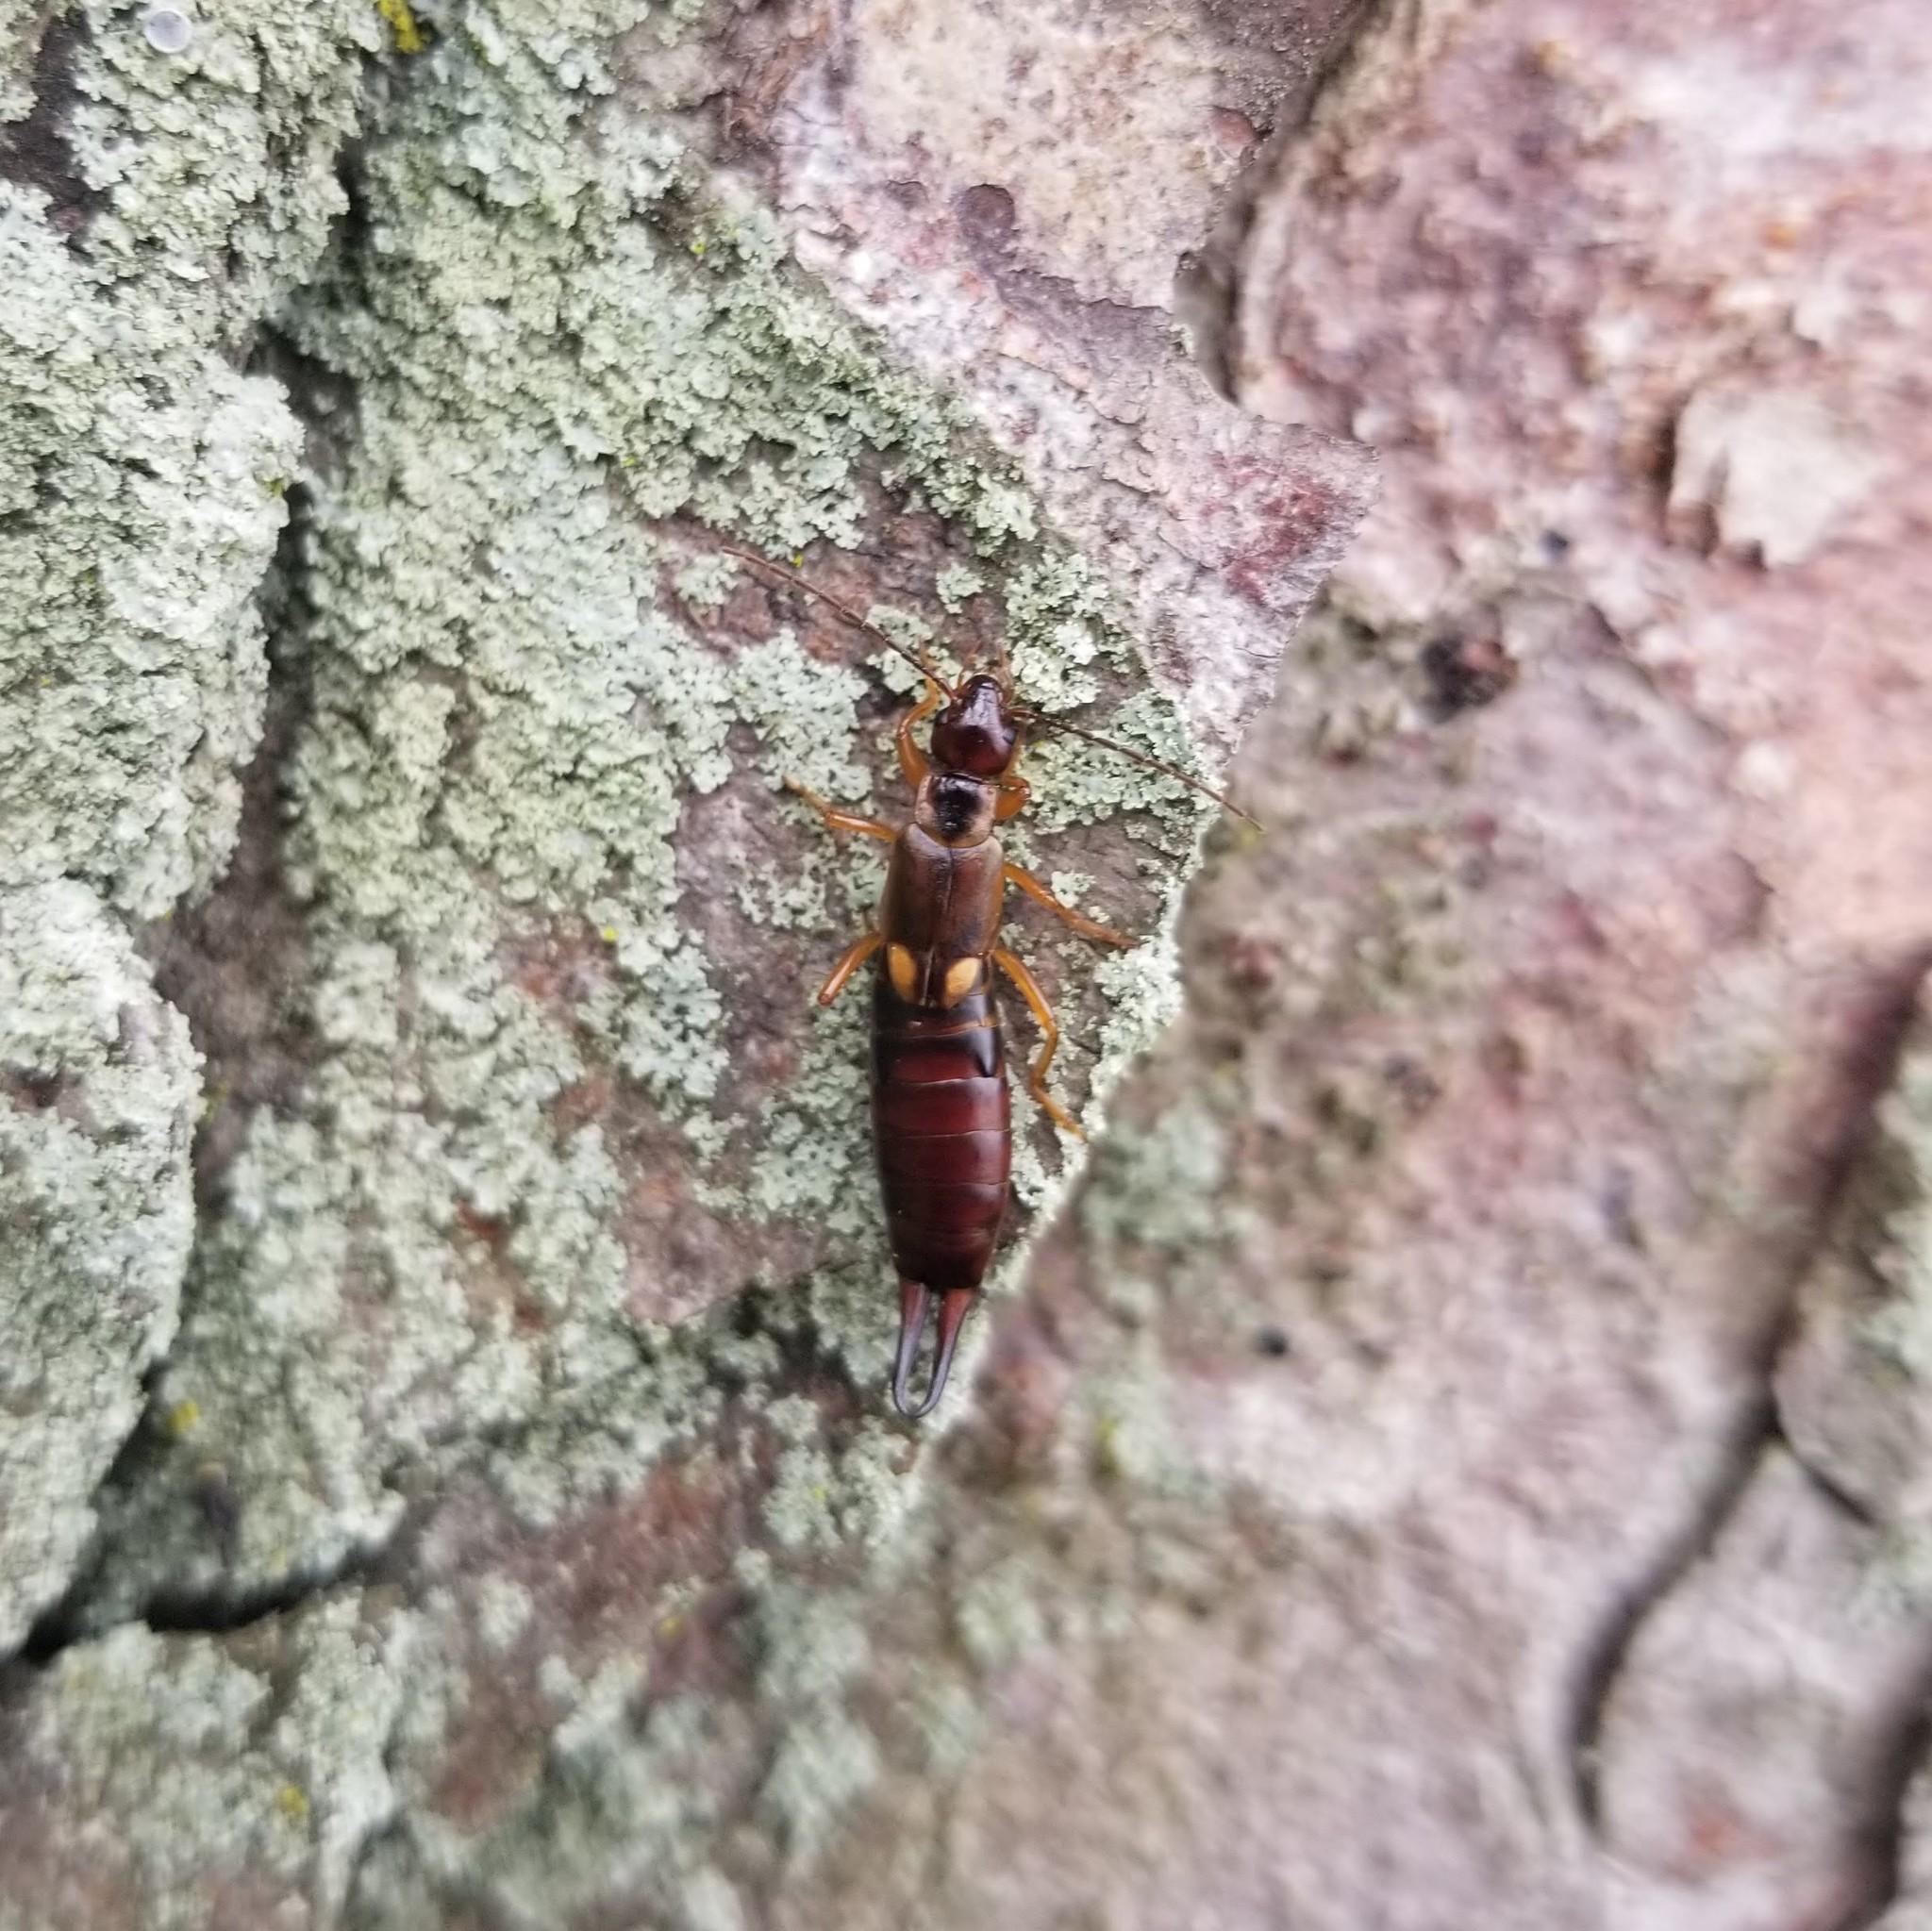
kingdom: Animalia
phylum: Arthropoda
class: Insecta
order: Dermaptera
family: Forficulidae
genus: Forficula
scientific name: Forficula
